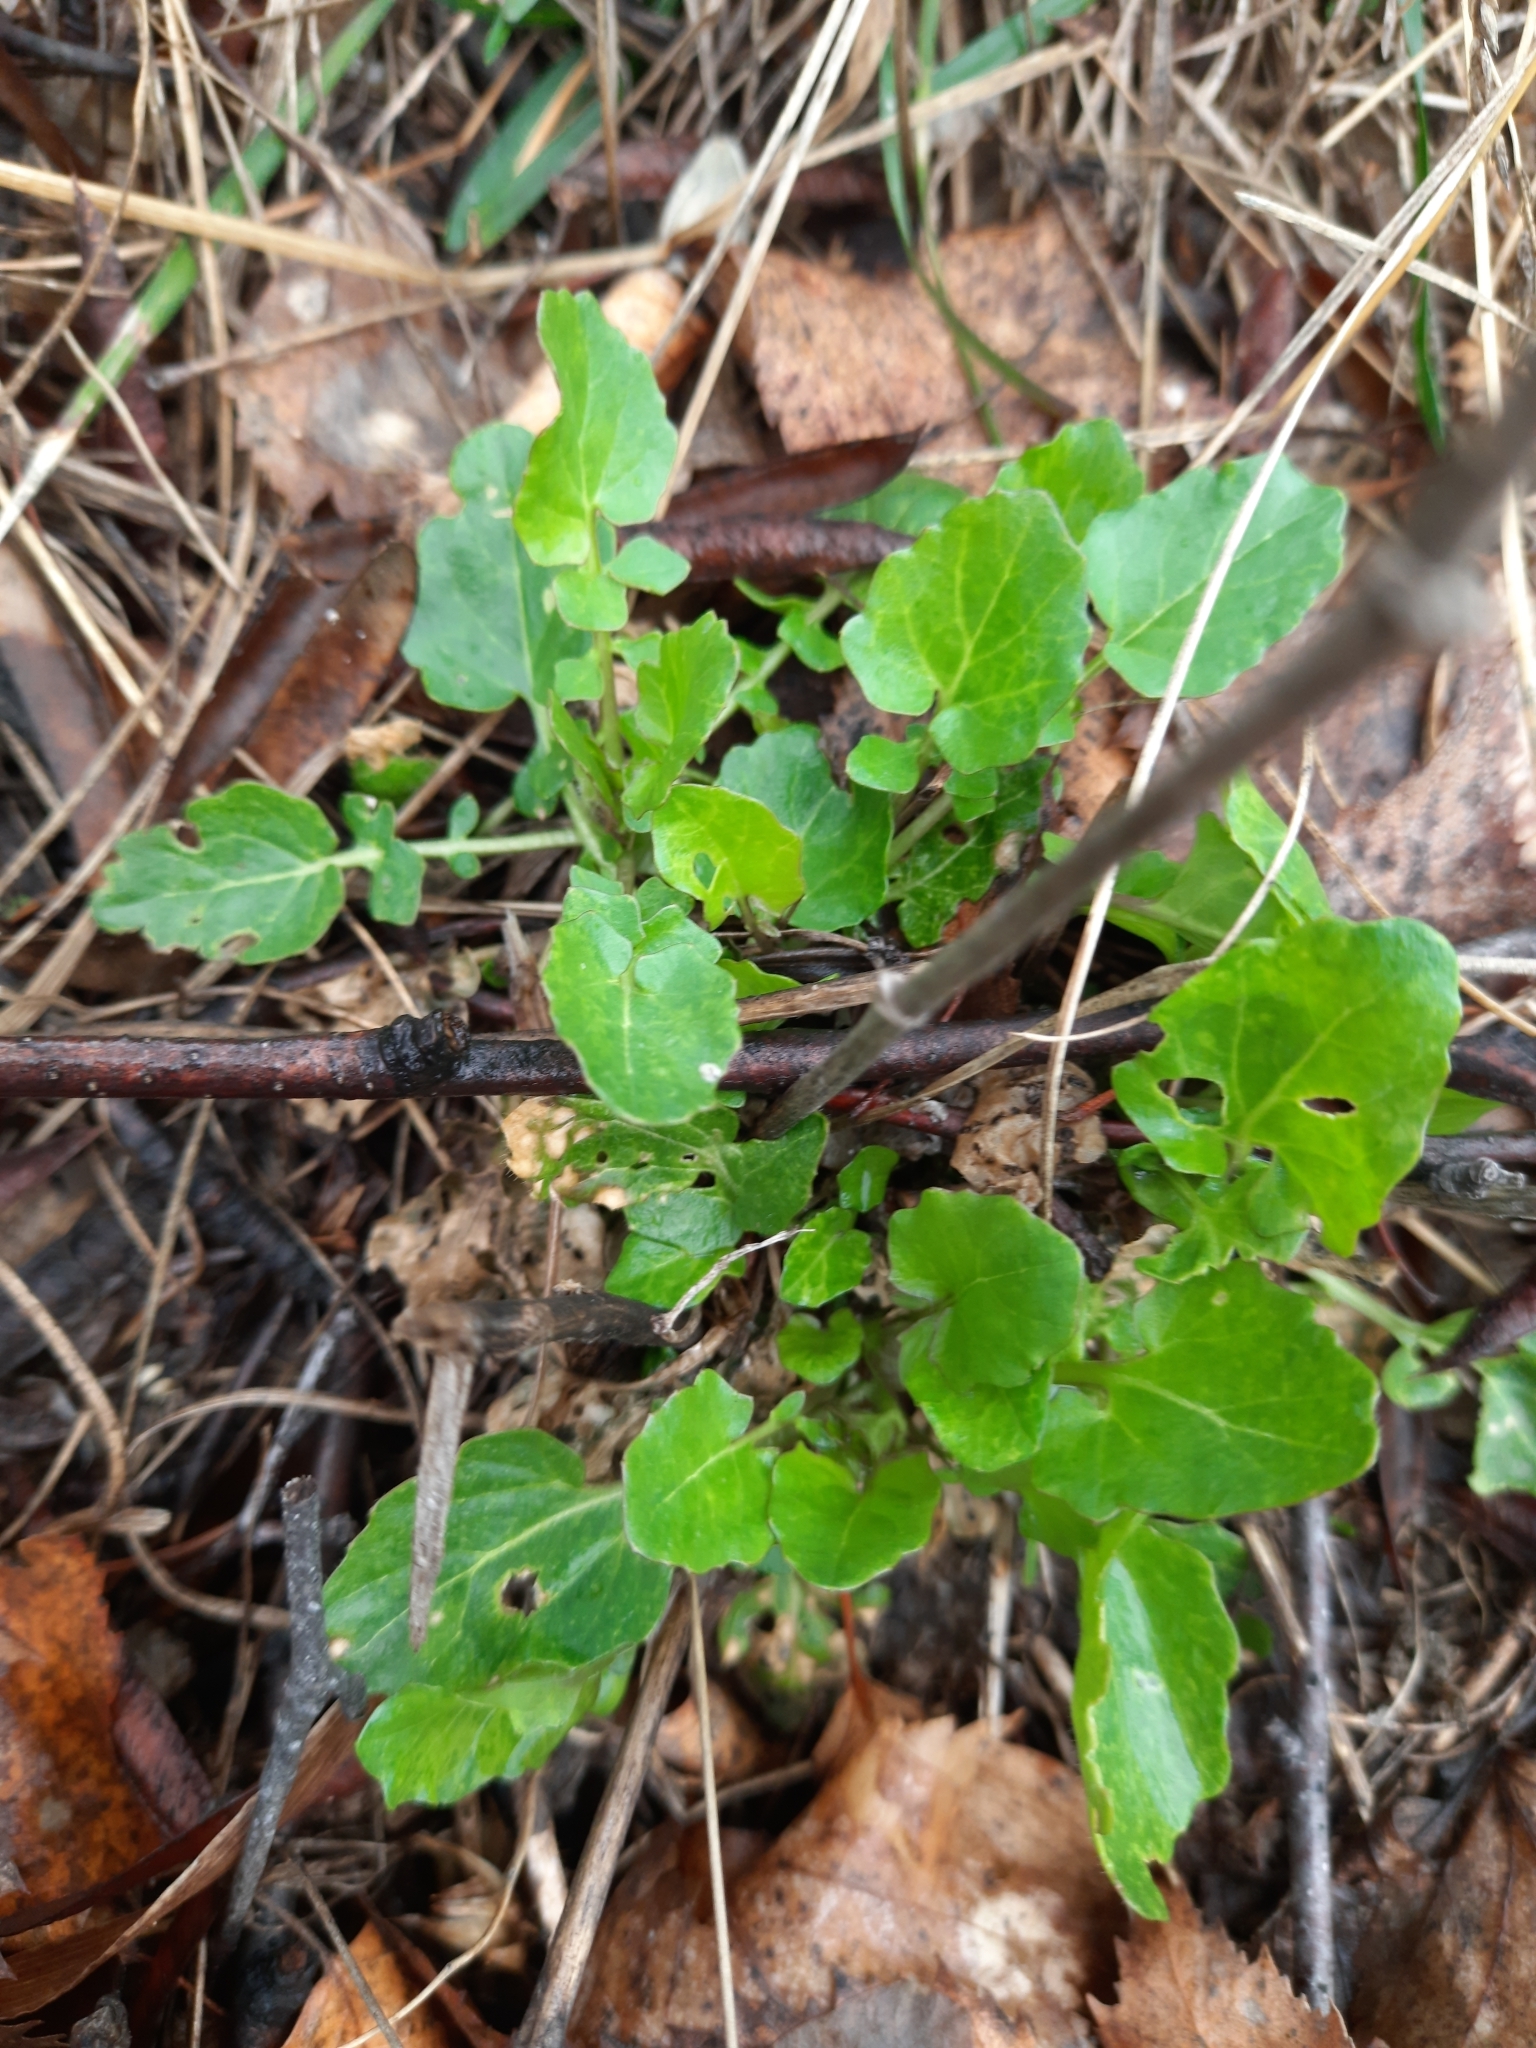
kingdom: Plantae
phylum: Tracheophyta
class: Magnoliopsida
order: Brassicales
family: Brassicaceae
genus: Barbarea
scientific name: Barbarea vulgaris
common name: Cressy-greens
